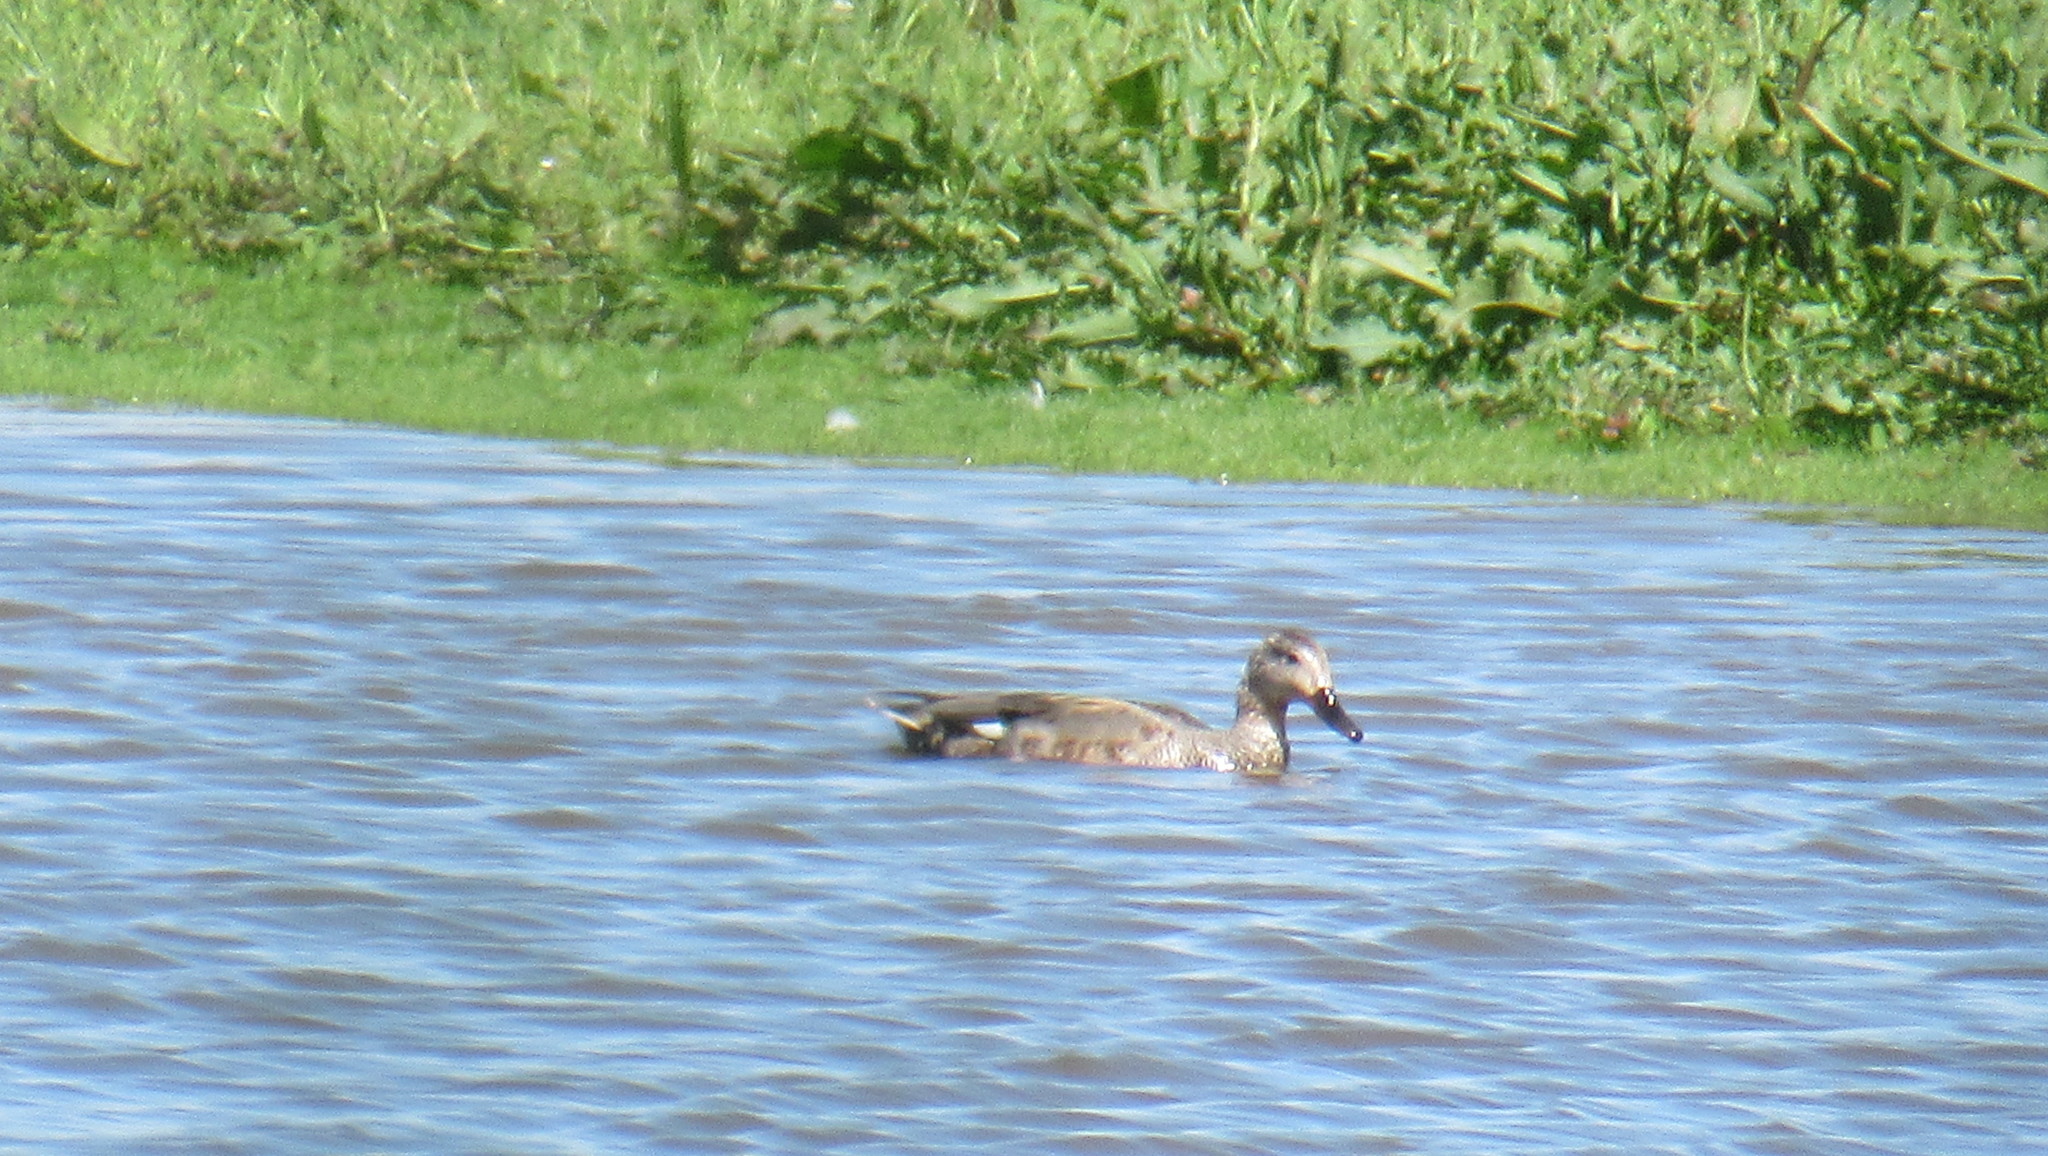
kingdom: Animalia
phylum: Chordata
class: Aves
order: Anseriformes
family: Anatidae
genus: Mareca
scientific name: Mareca strepera
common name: Gadwall
